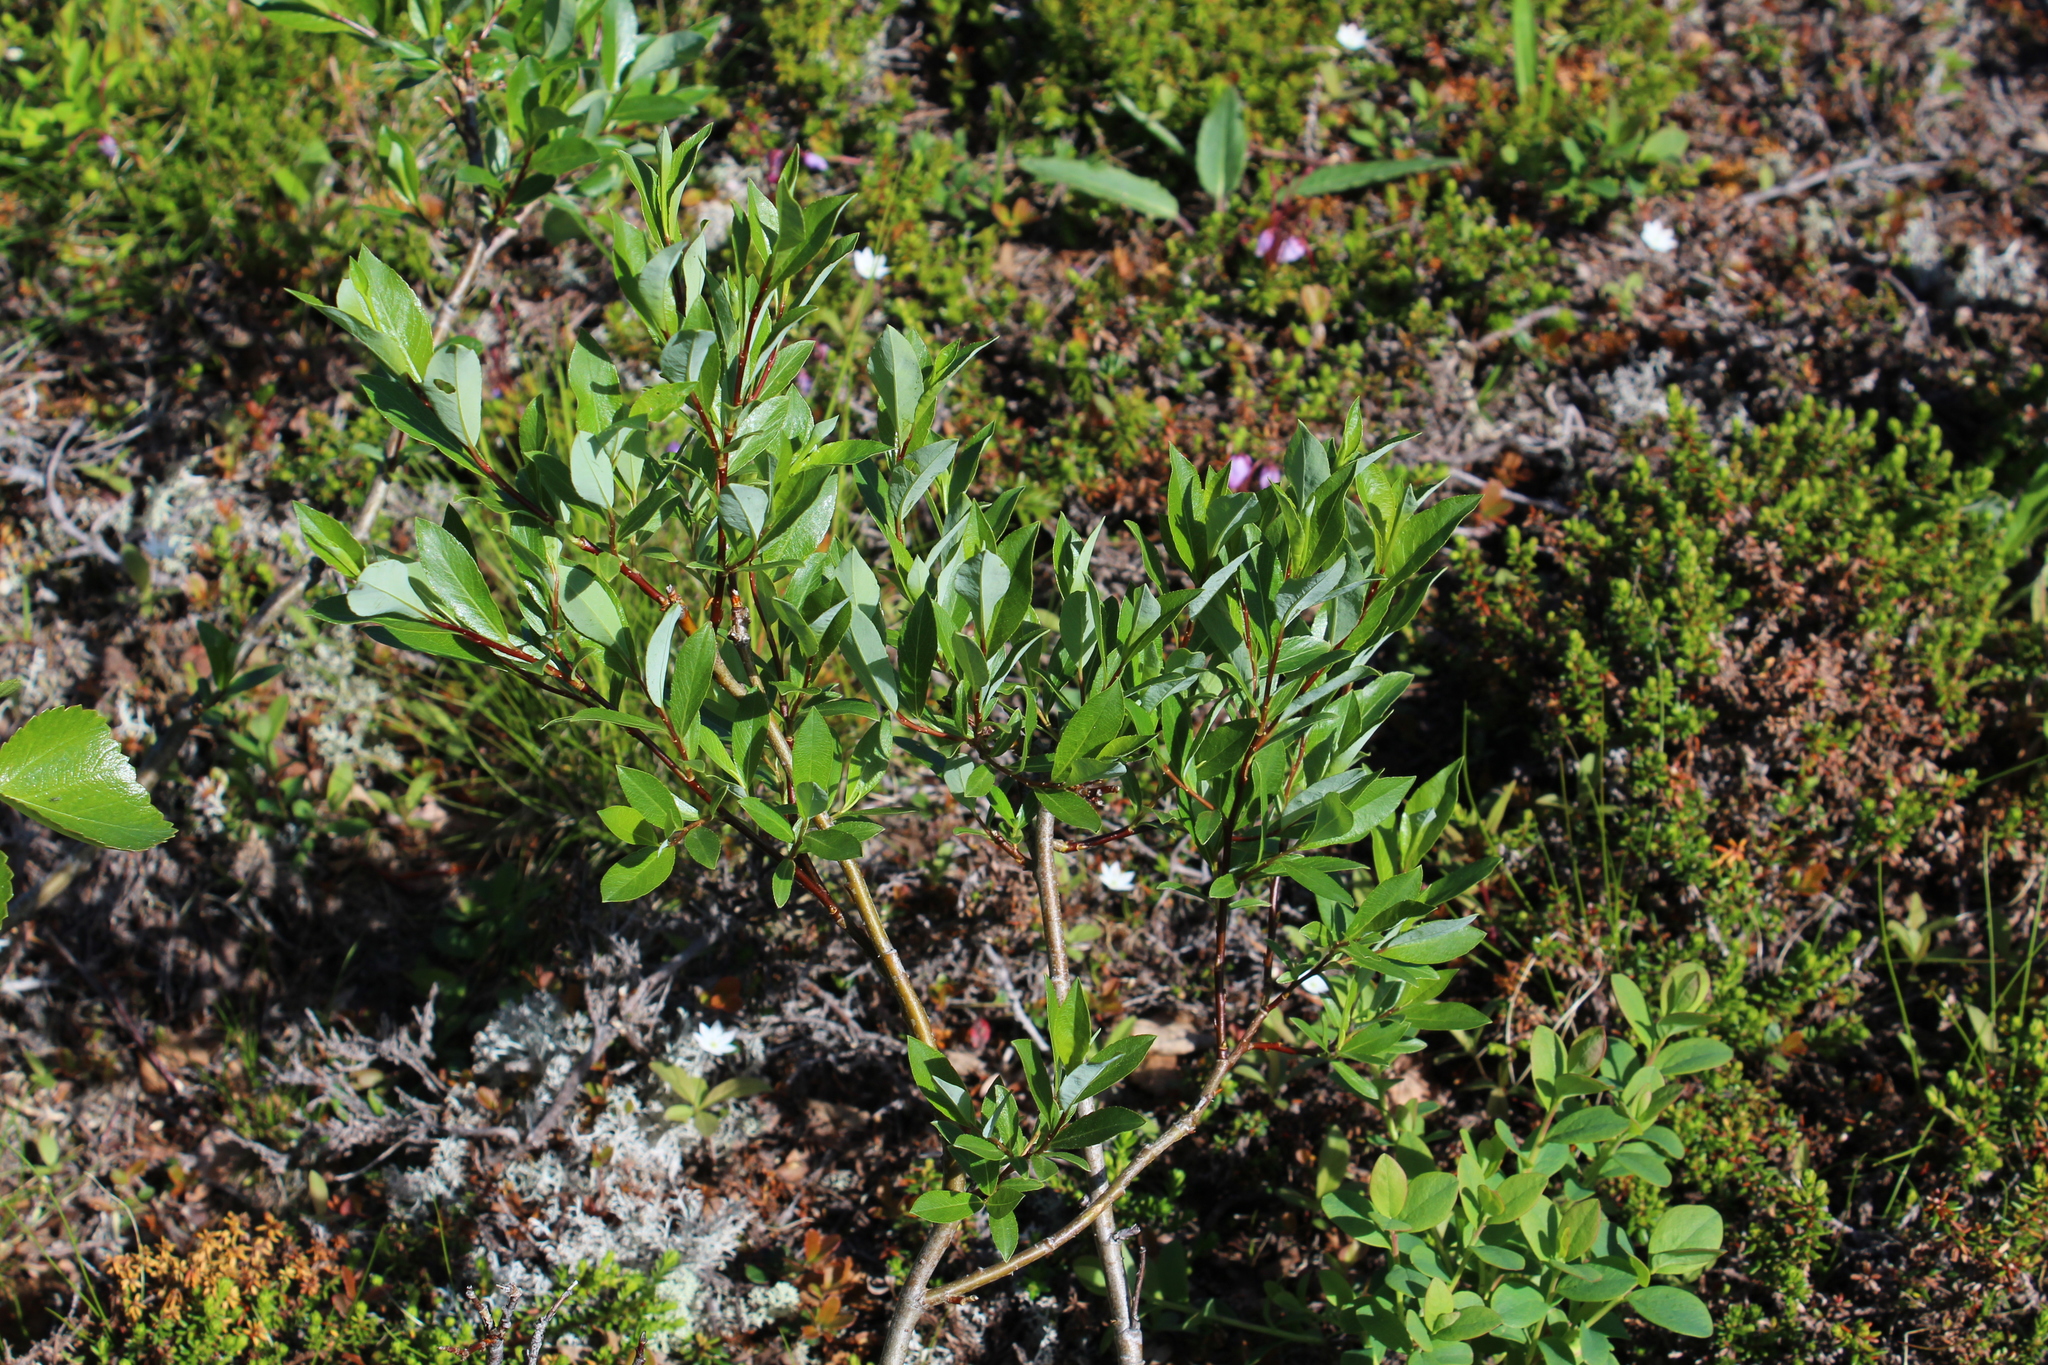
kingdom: Plantae
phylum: Tracheophyta
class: Magnoliopsida
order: Malpighiales
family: Salicaceae
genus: Salix
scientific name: Salix phylicifolia
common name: Tea-leaved willow
